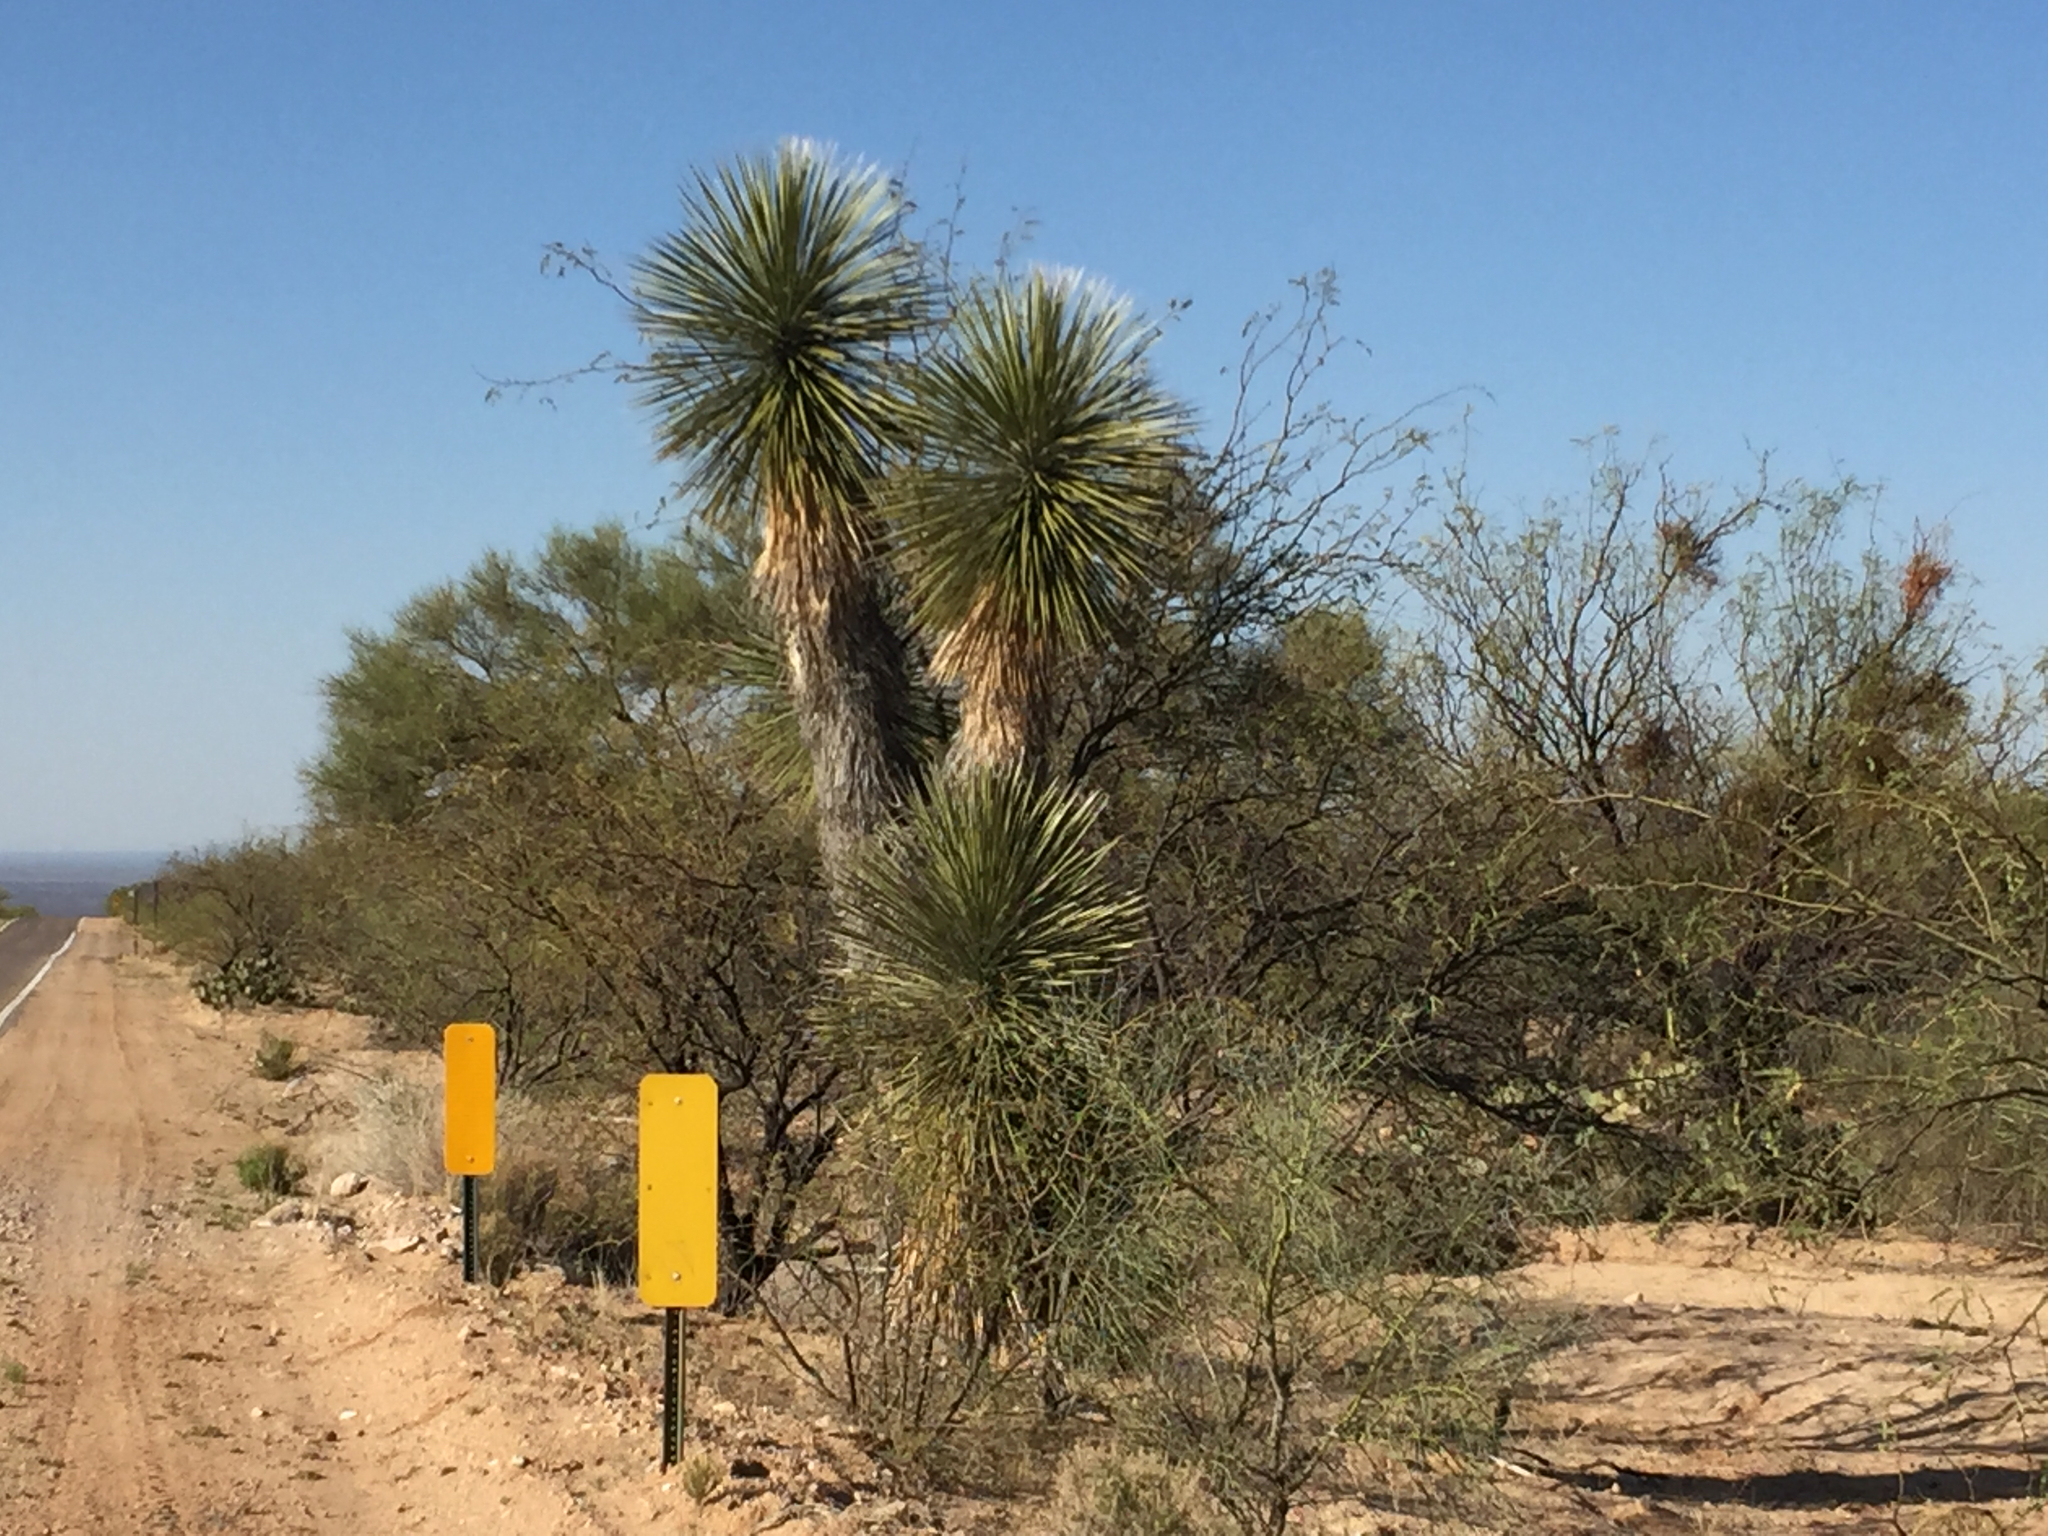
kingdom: Plantae
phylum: Tracheophyta
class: Liliopsida
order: Asparagales
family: Asparagaceae
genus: Yucca
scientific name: Yucca elata
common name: Palmella
